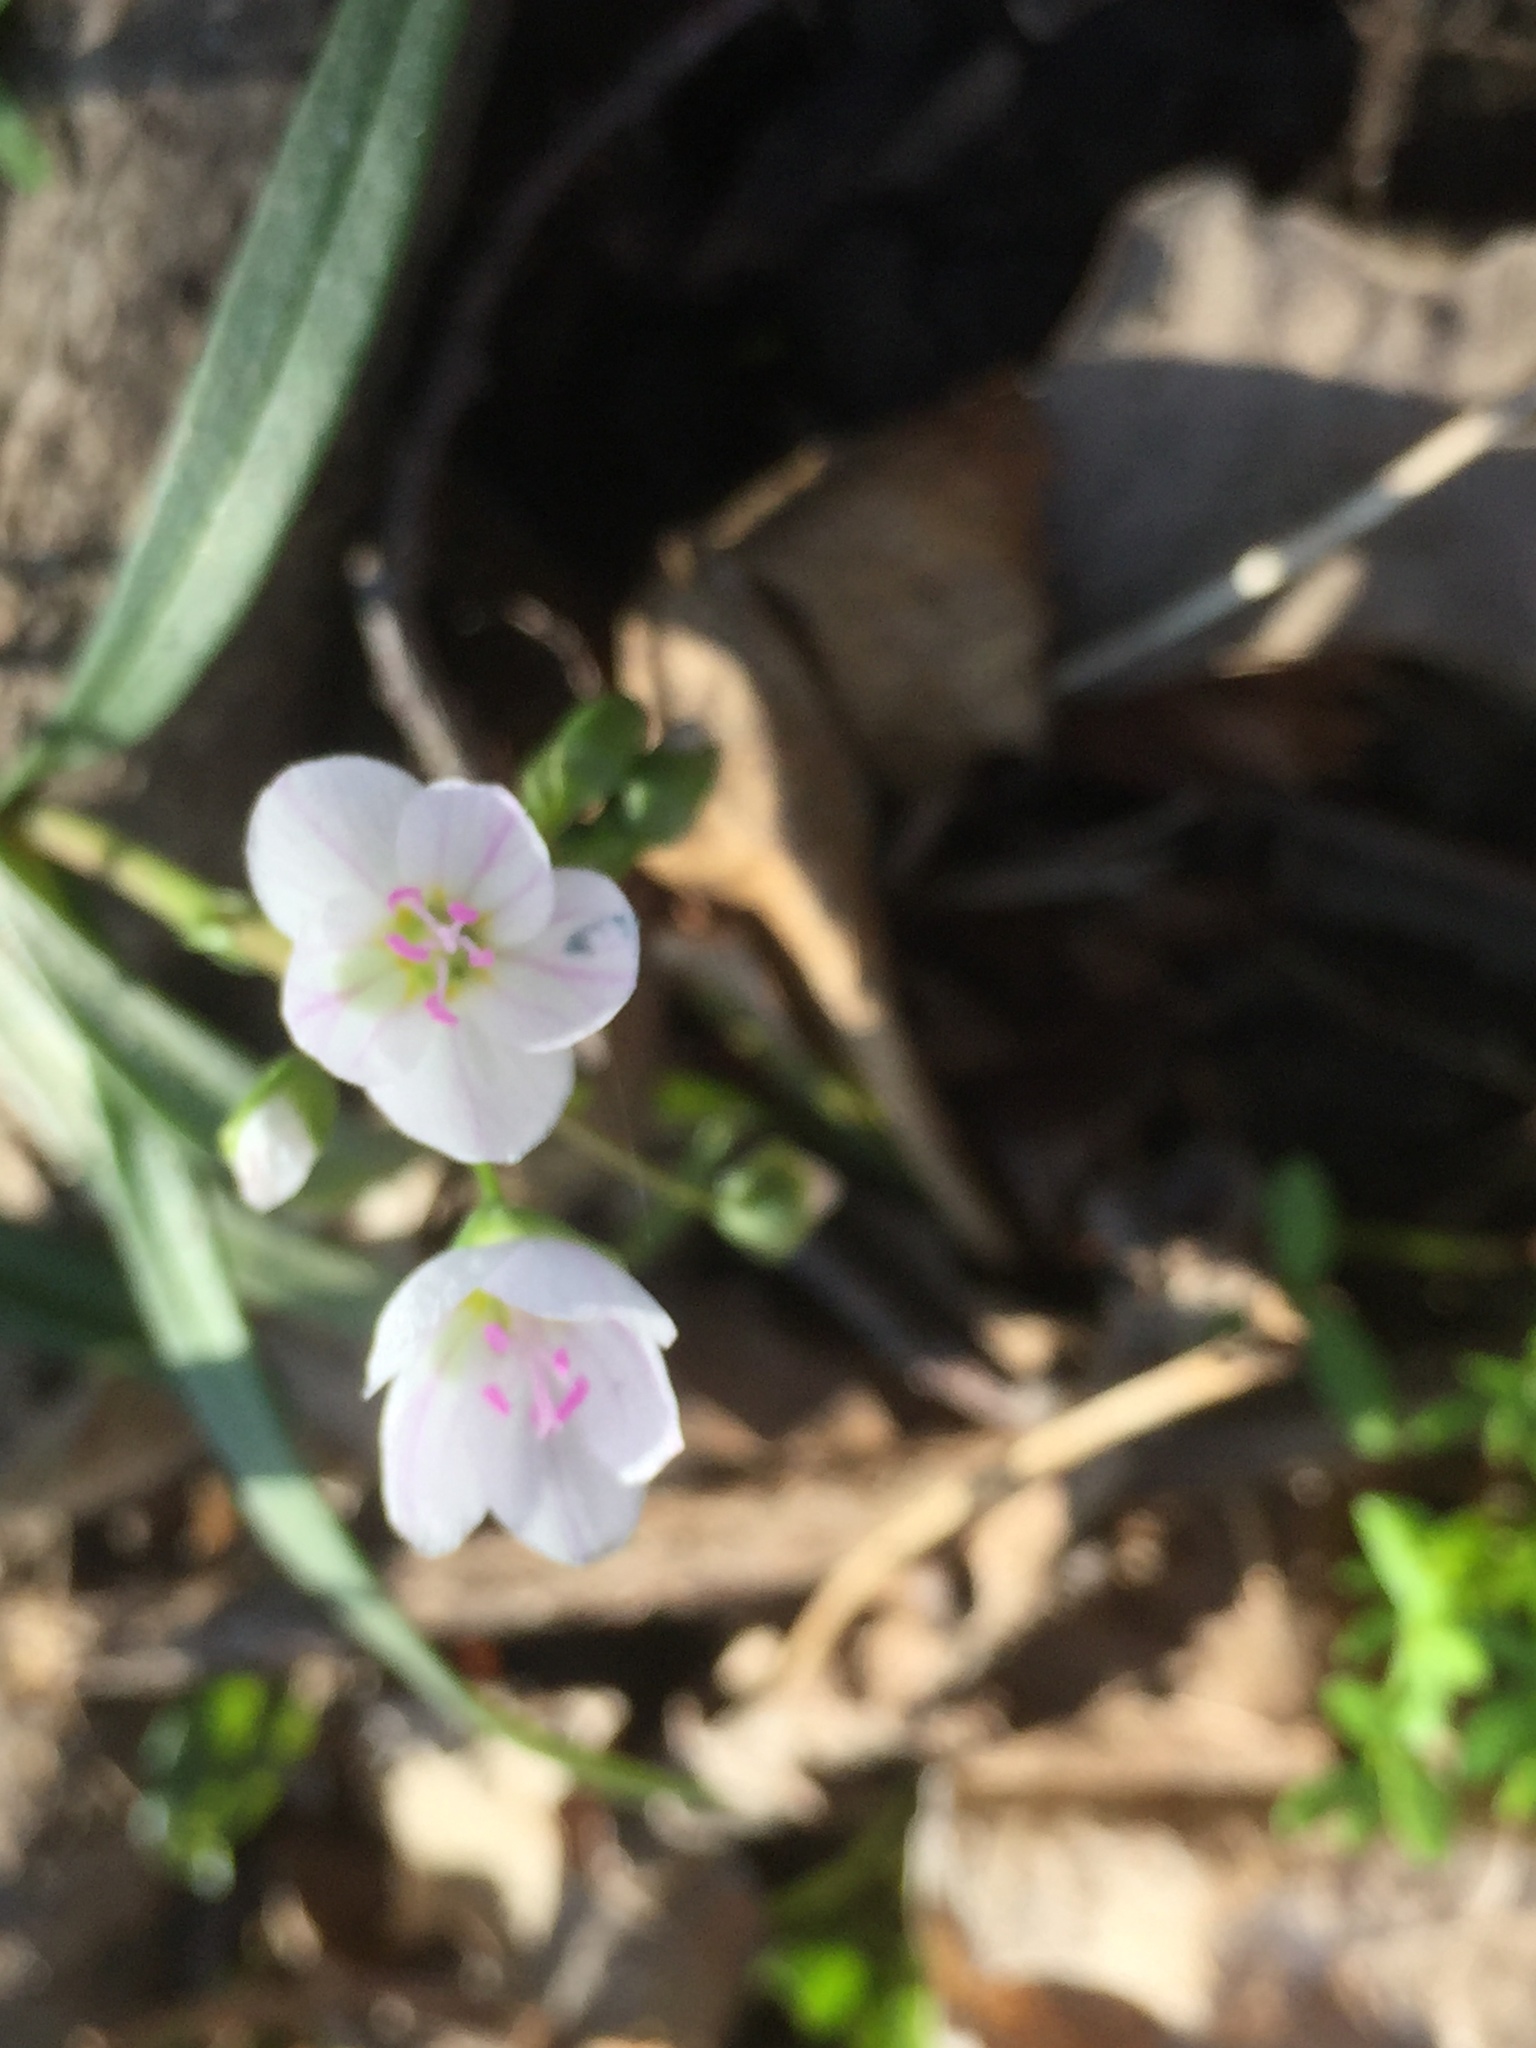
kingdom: Plantae
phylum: Tracheophyta
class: Magnoliopsida
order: Caryophyllales
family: Montiaceae
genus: Claytonia
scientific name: Claytonia virginica
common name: Virginia springbeauty
